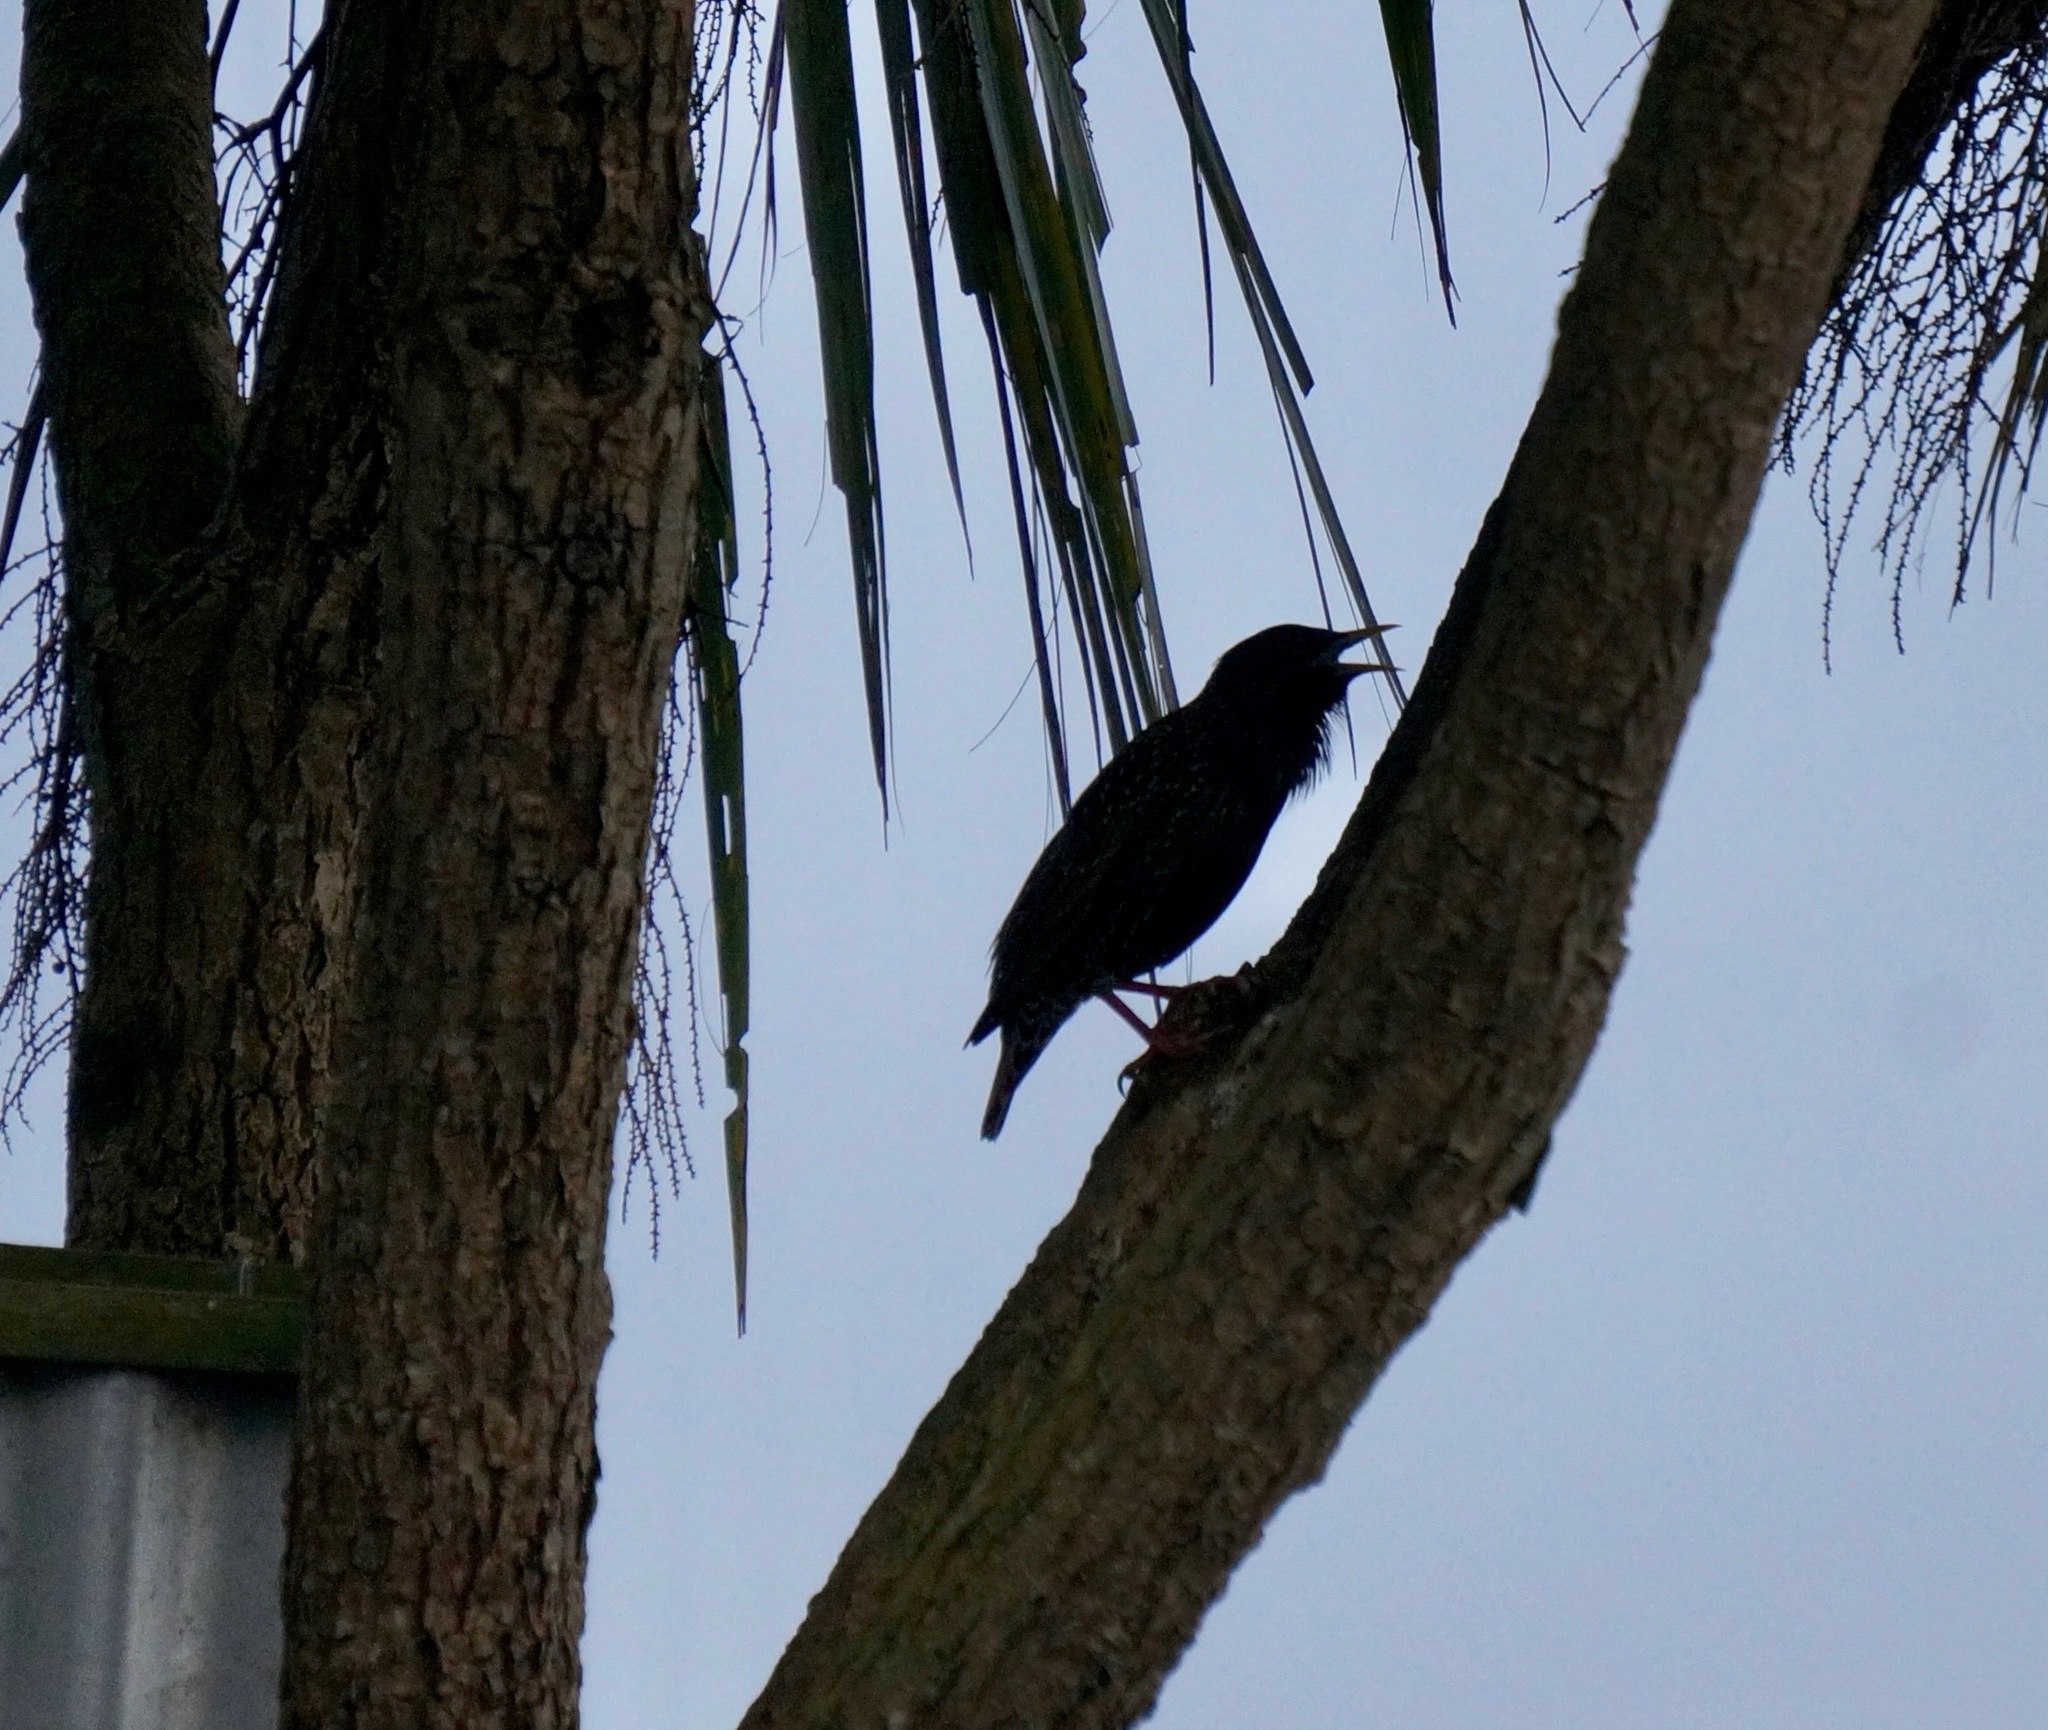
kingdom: Animalia
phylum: Chordata
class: Aves
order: Passeriformes
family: Sturnidae
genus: Sturnus
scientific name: Sturnus vulgaris
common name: Common starling
